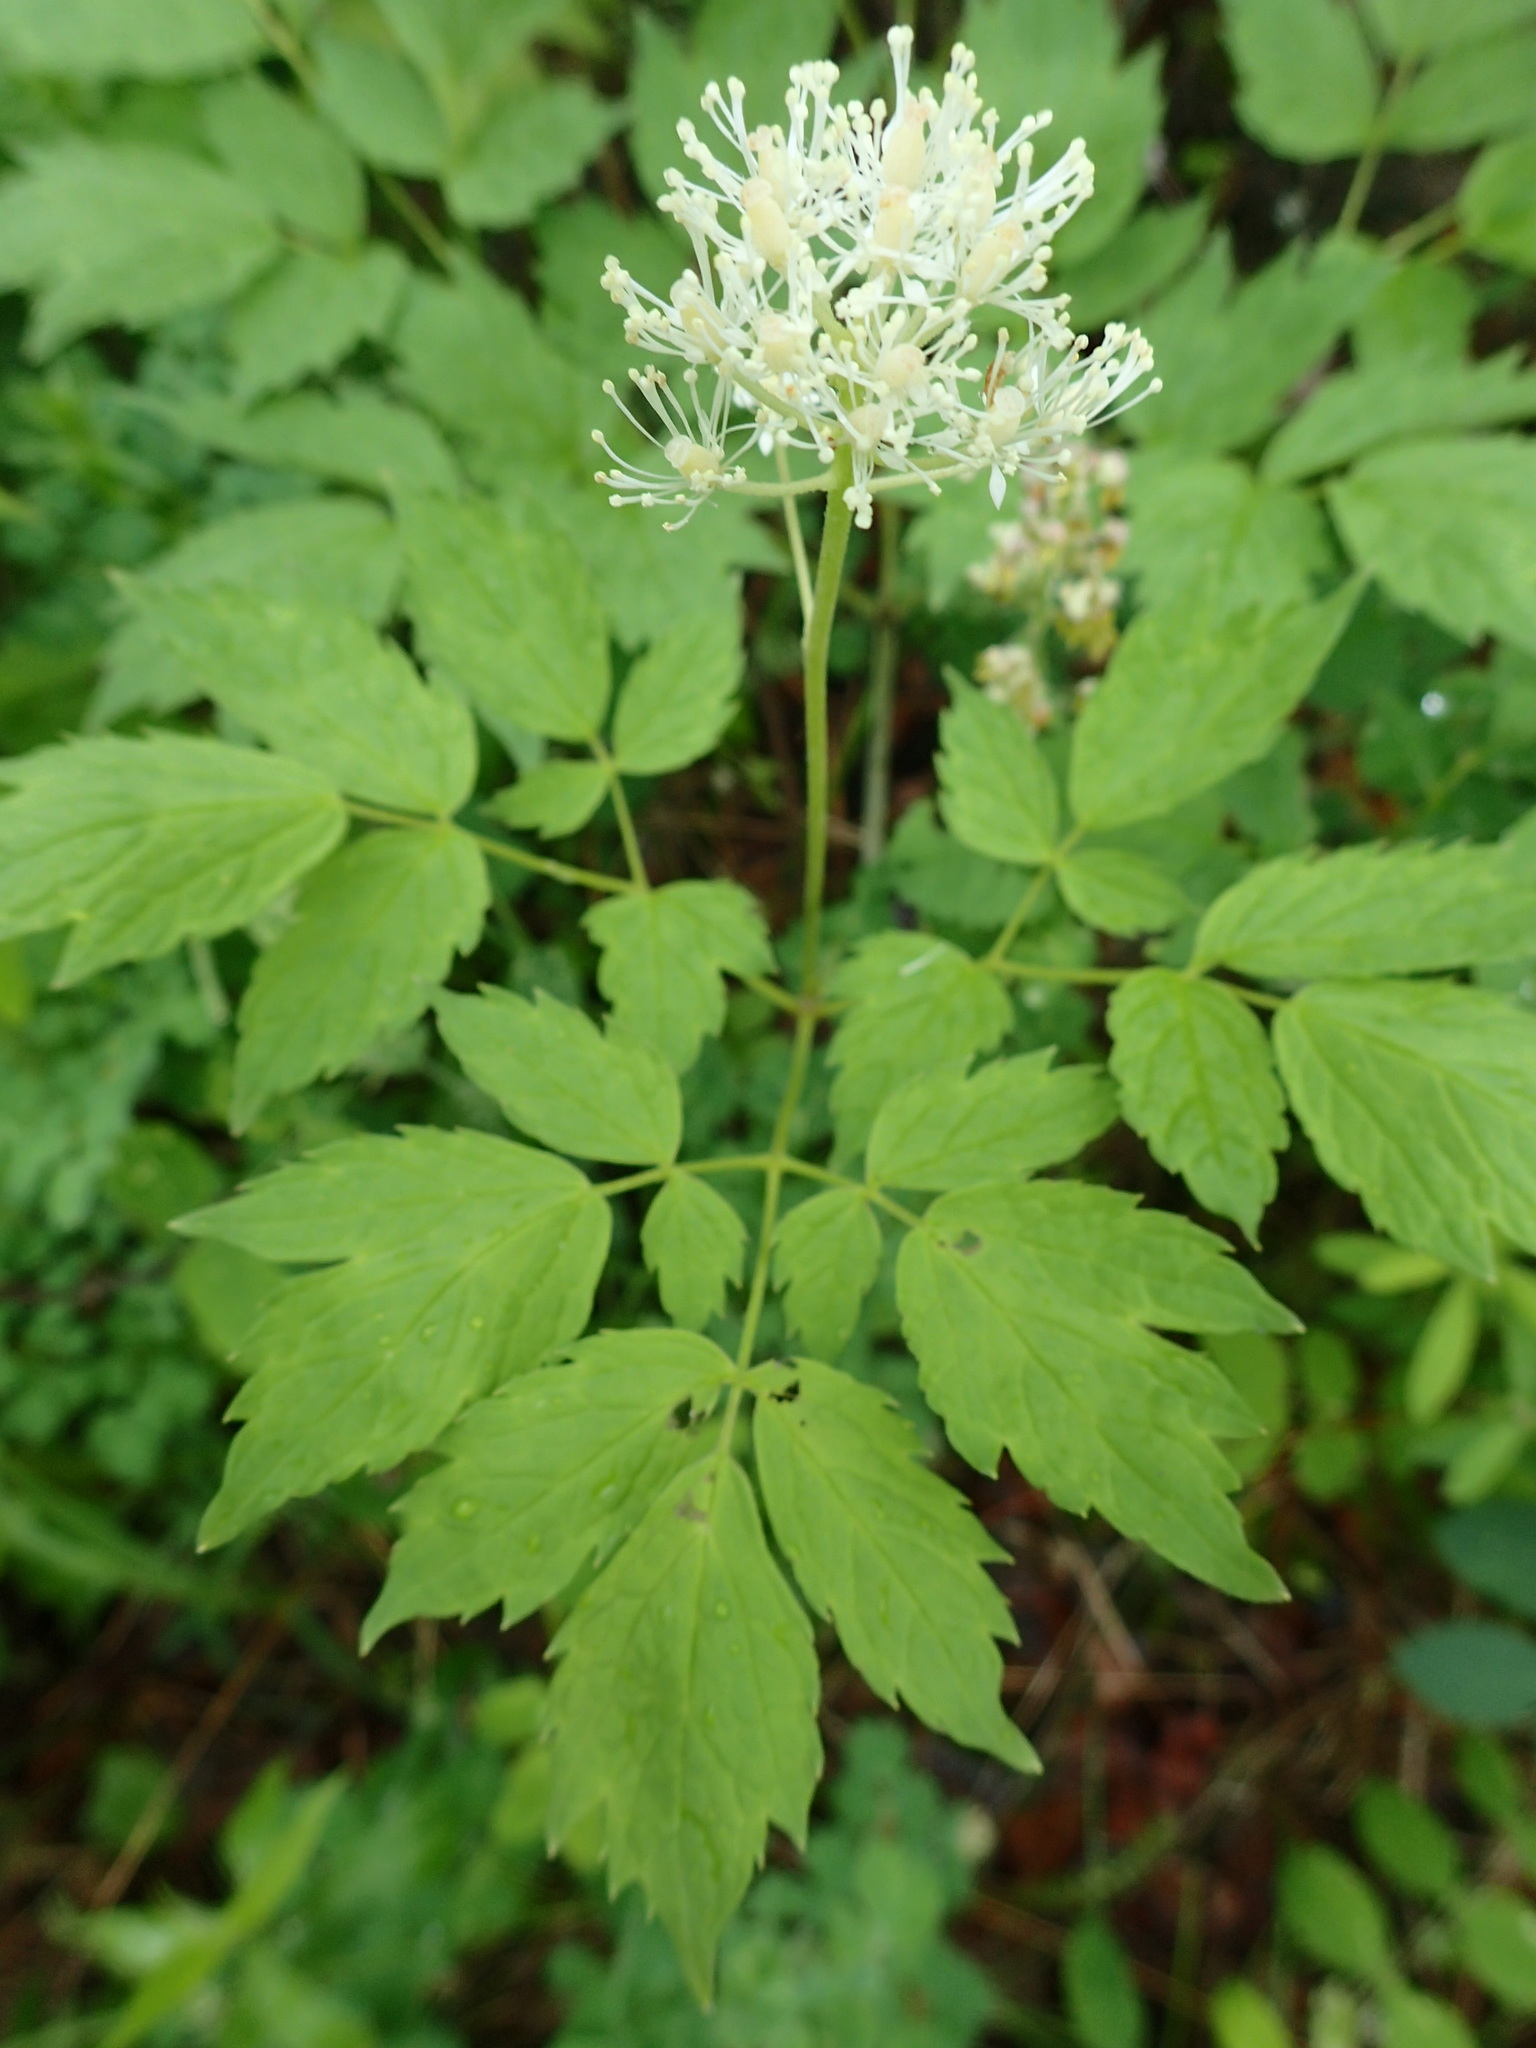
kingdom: Plantae
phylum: Tracheophyta
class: Magnoliopsida
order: Ranunculales
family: Ranunculaceae
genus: Actaea
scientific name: Actaea rubra
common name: Red baneberry
